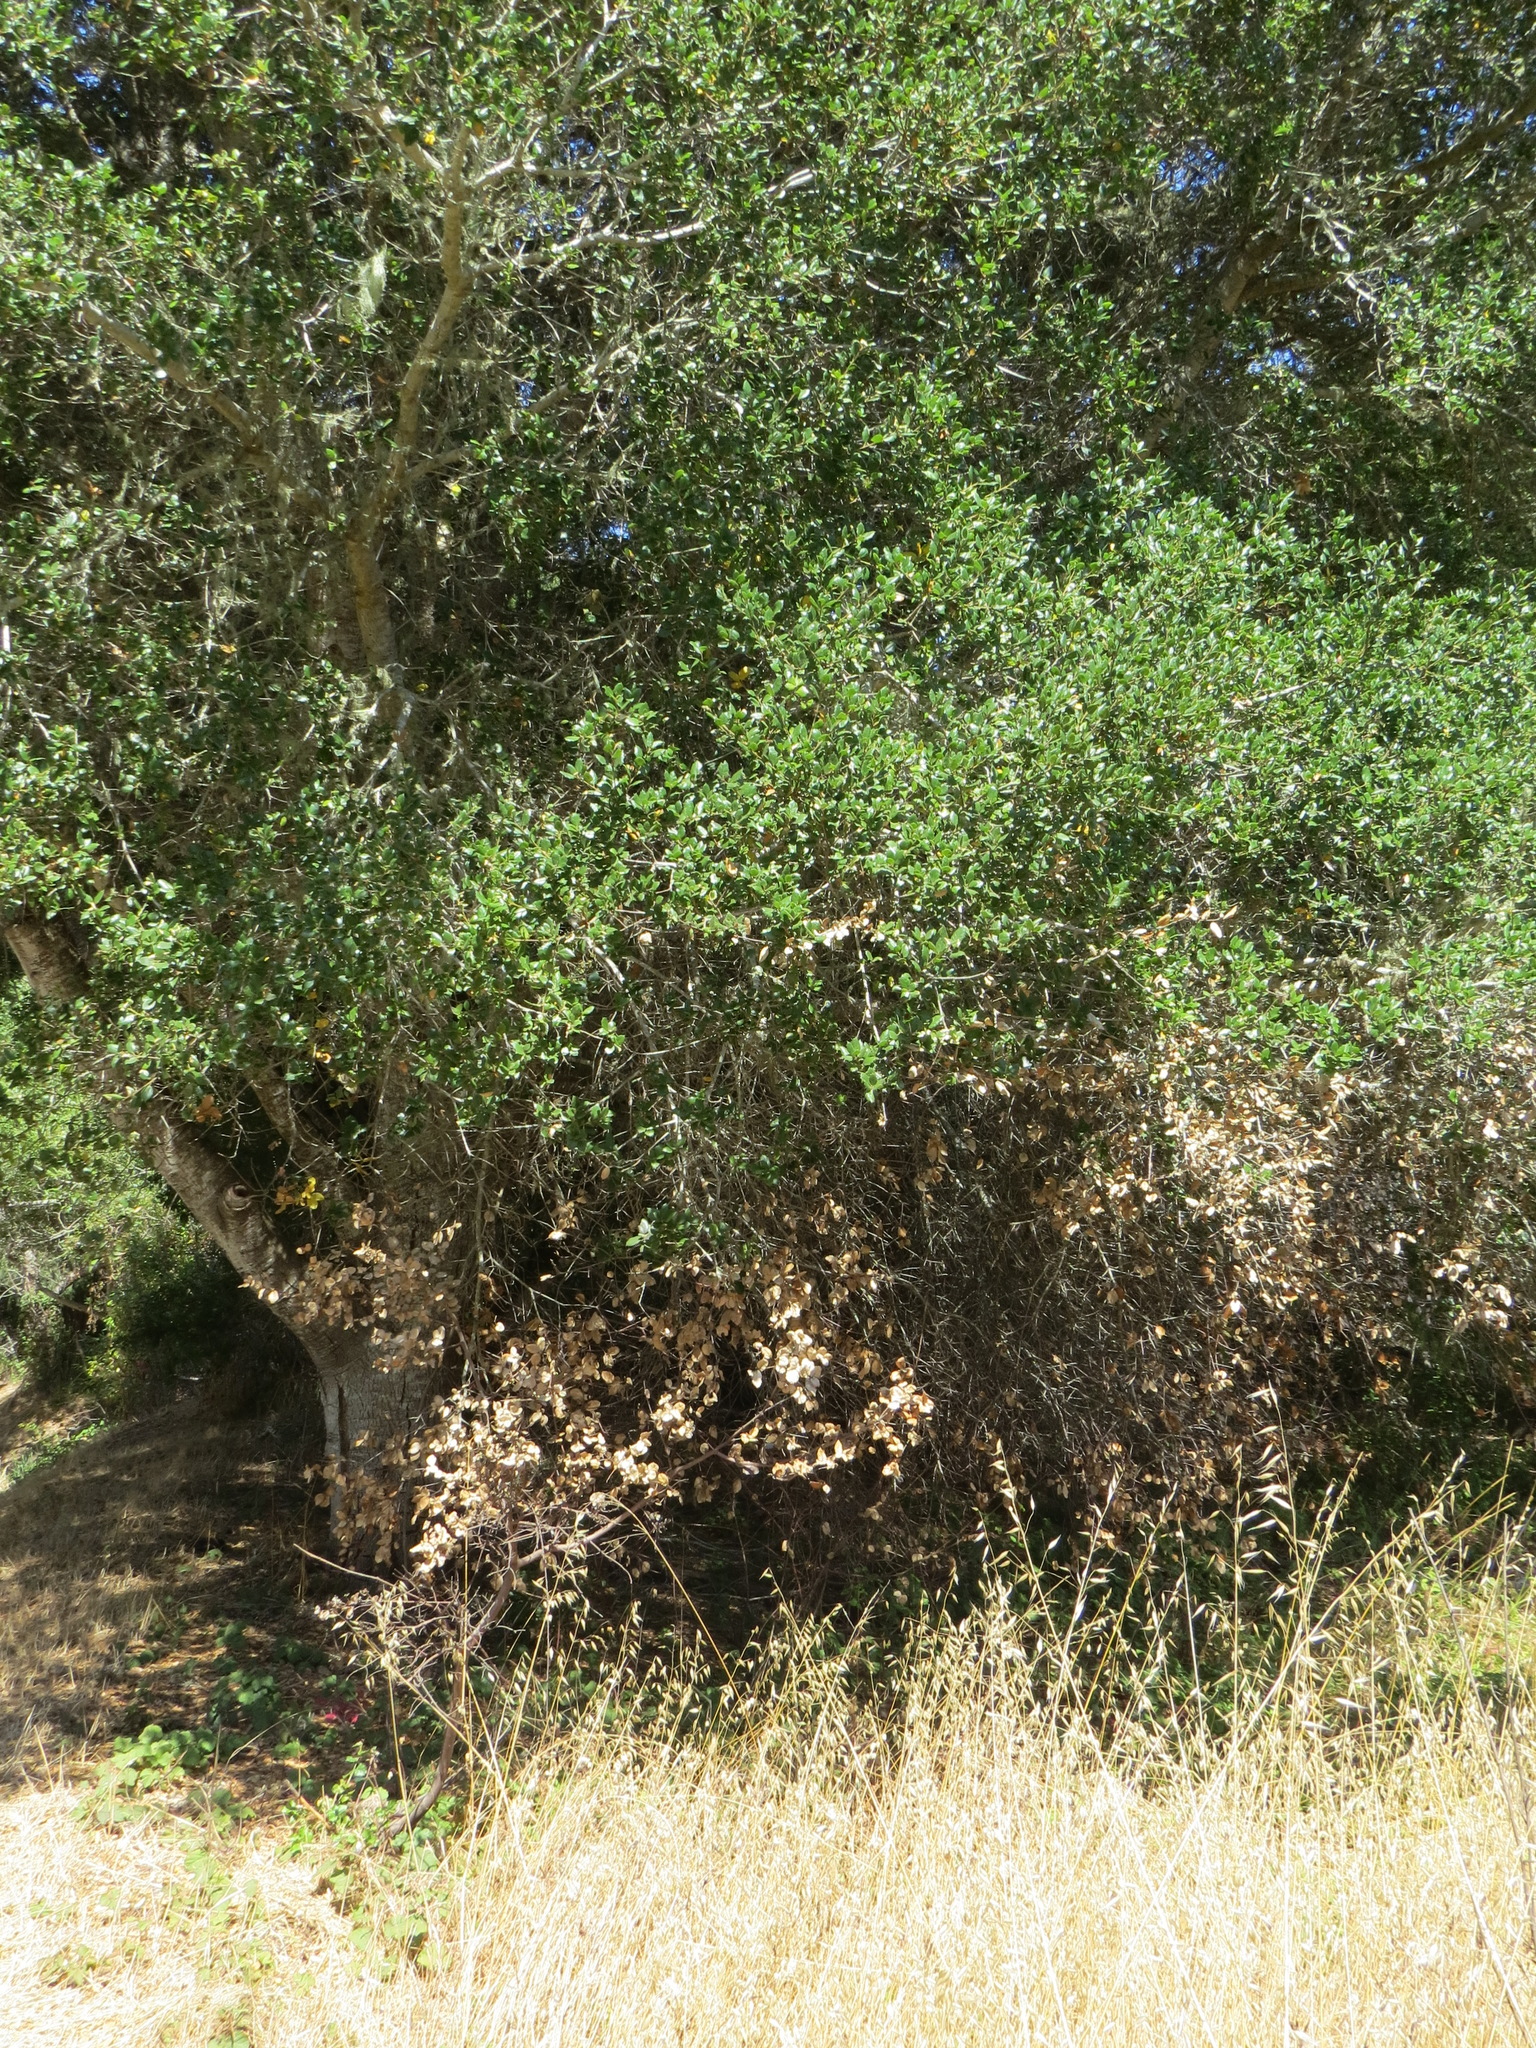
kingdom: Plantae
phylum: Tracheophyta
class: Magnoliopsida
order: Fagales
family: Fagaceae
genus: Quercus
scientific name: Quercus agrifolia
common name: California live oak
